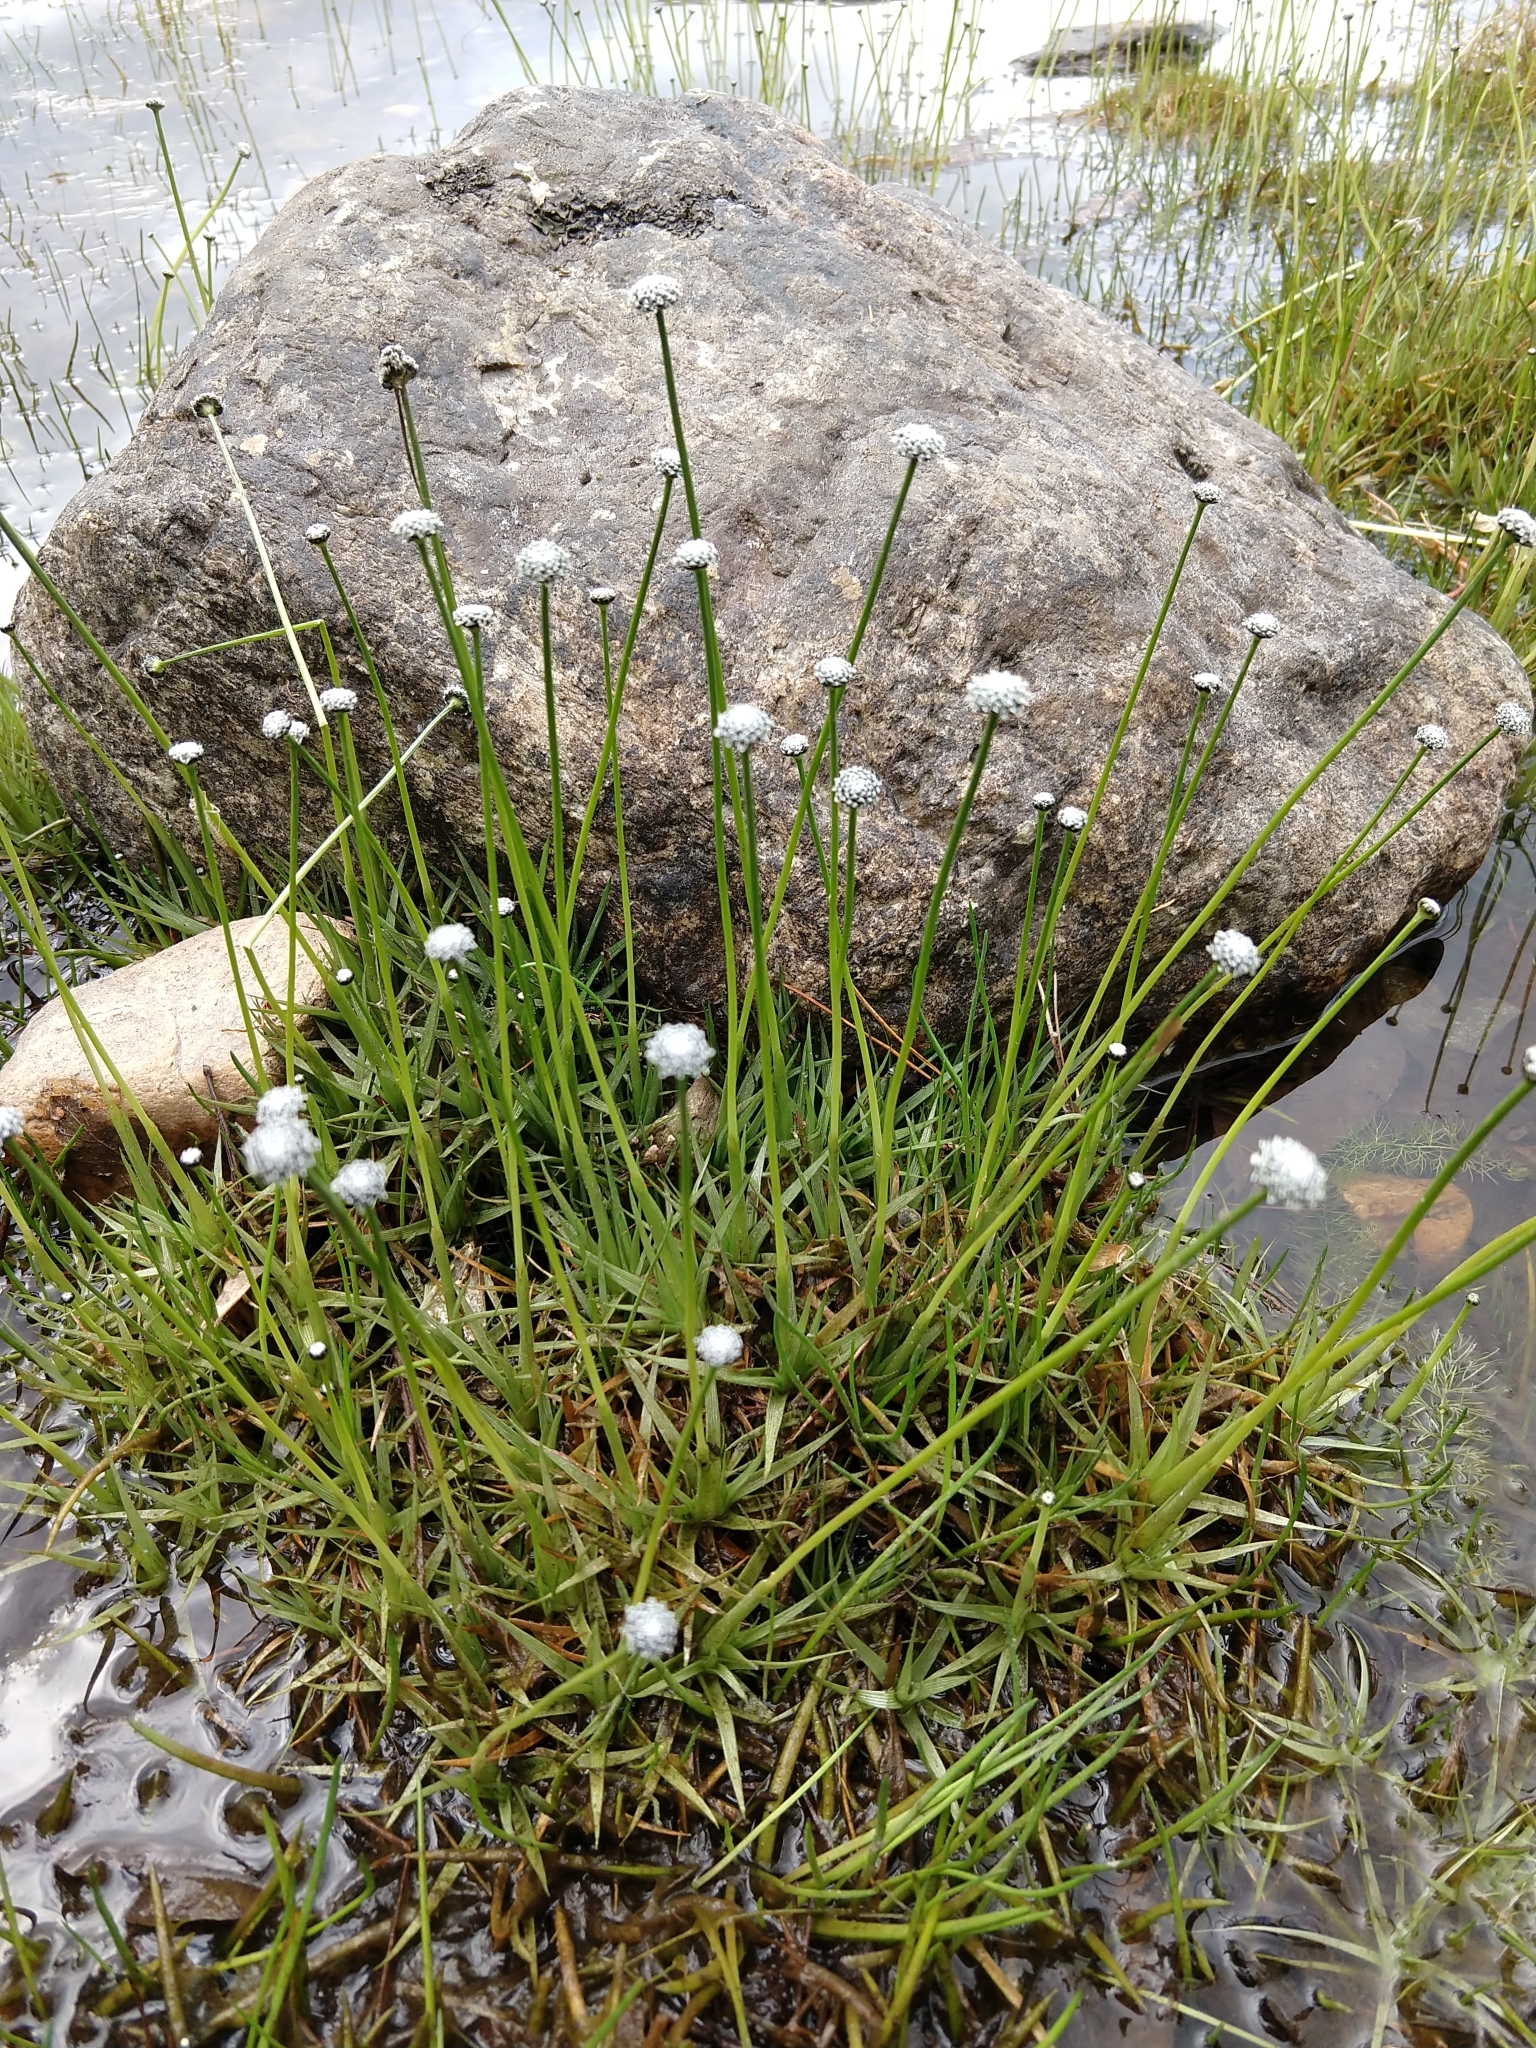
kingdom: Plantae
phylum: Tracheophyta
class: Liliopsida
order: Poales
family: Eriocaulaceae
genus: Eriocaulon
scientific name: Eriocaulon aquaticum
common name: Pipewort
